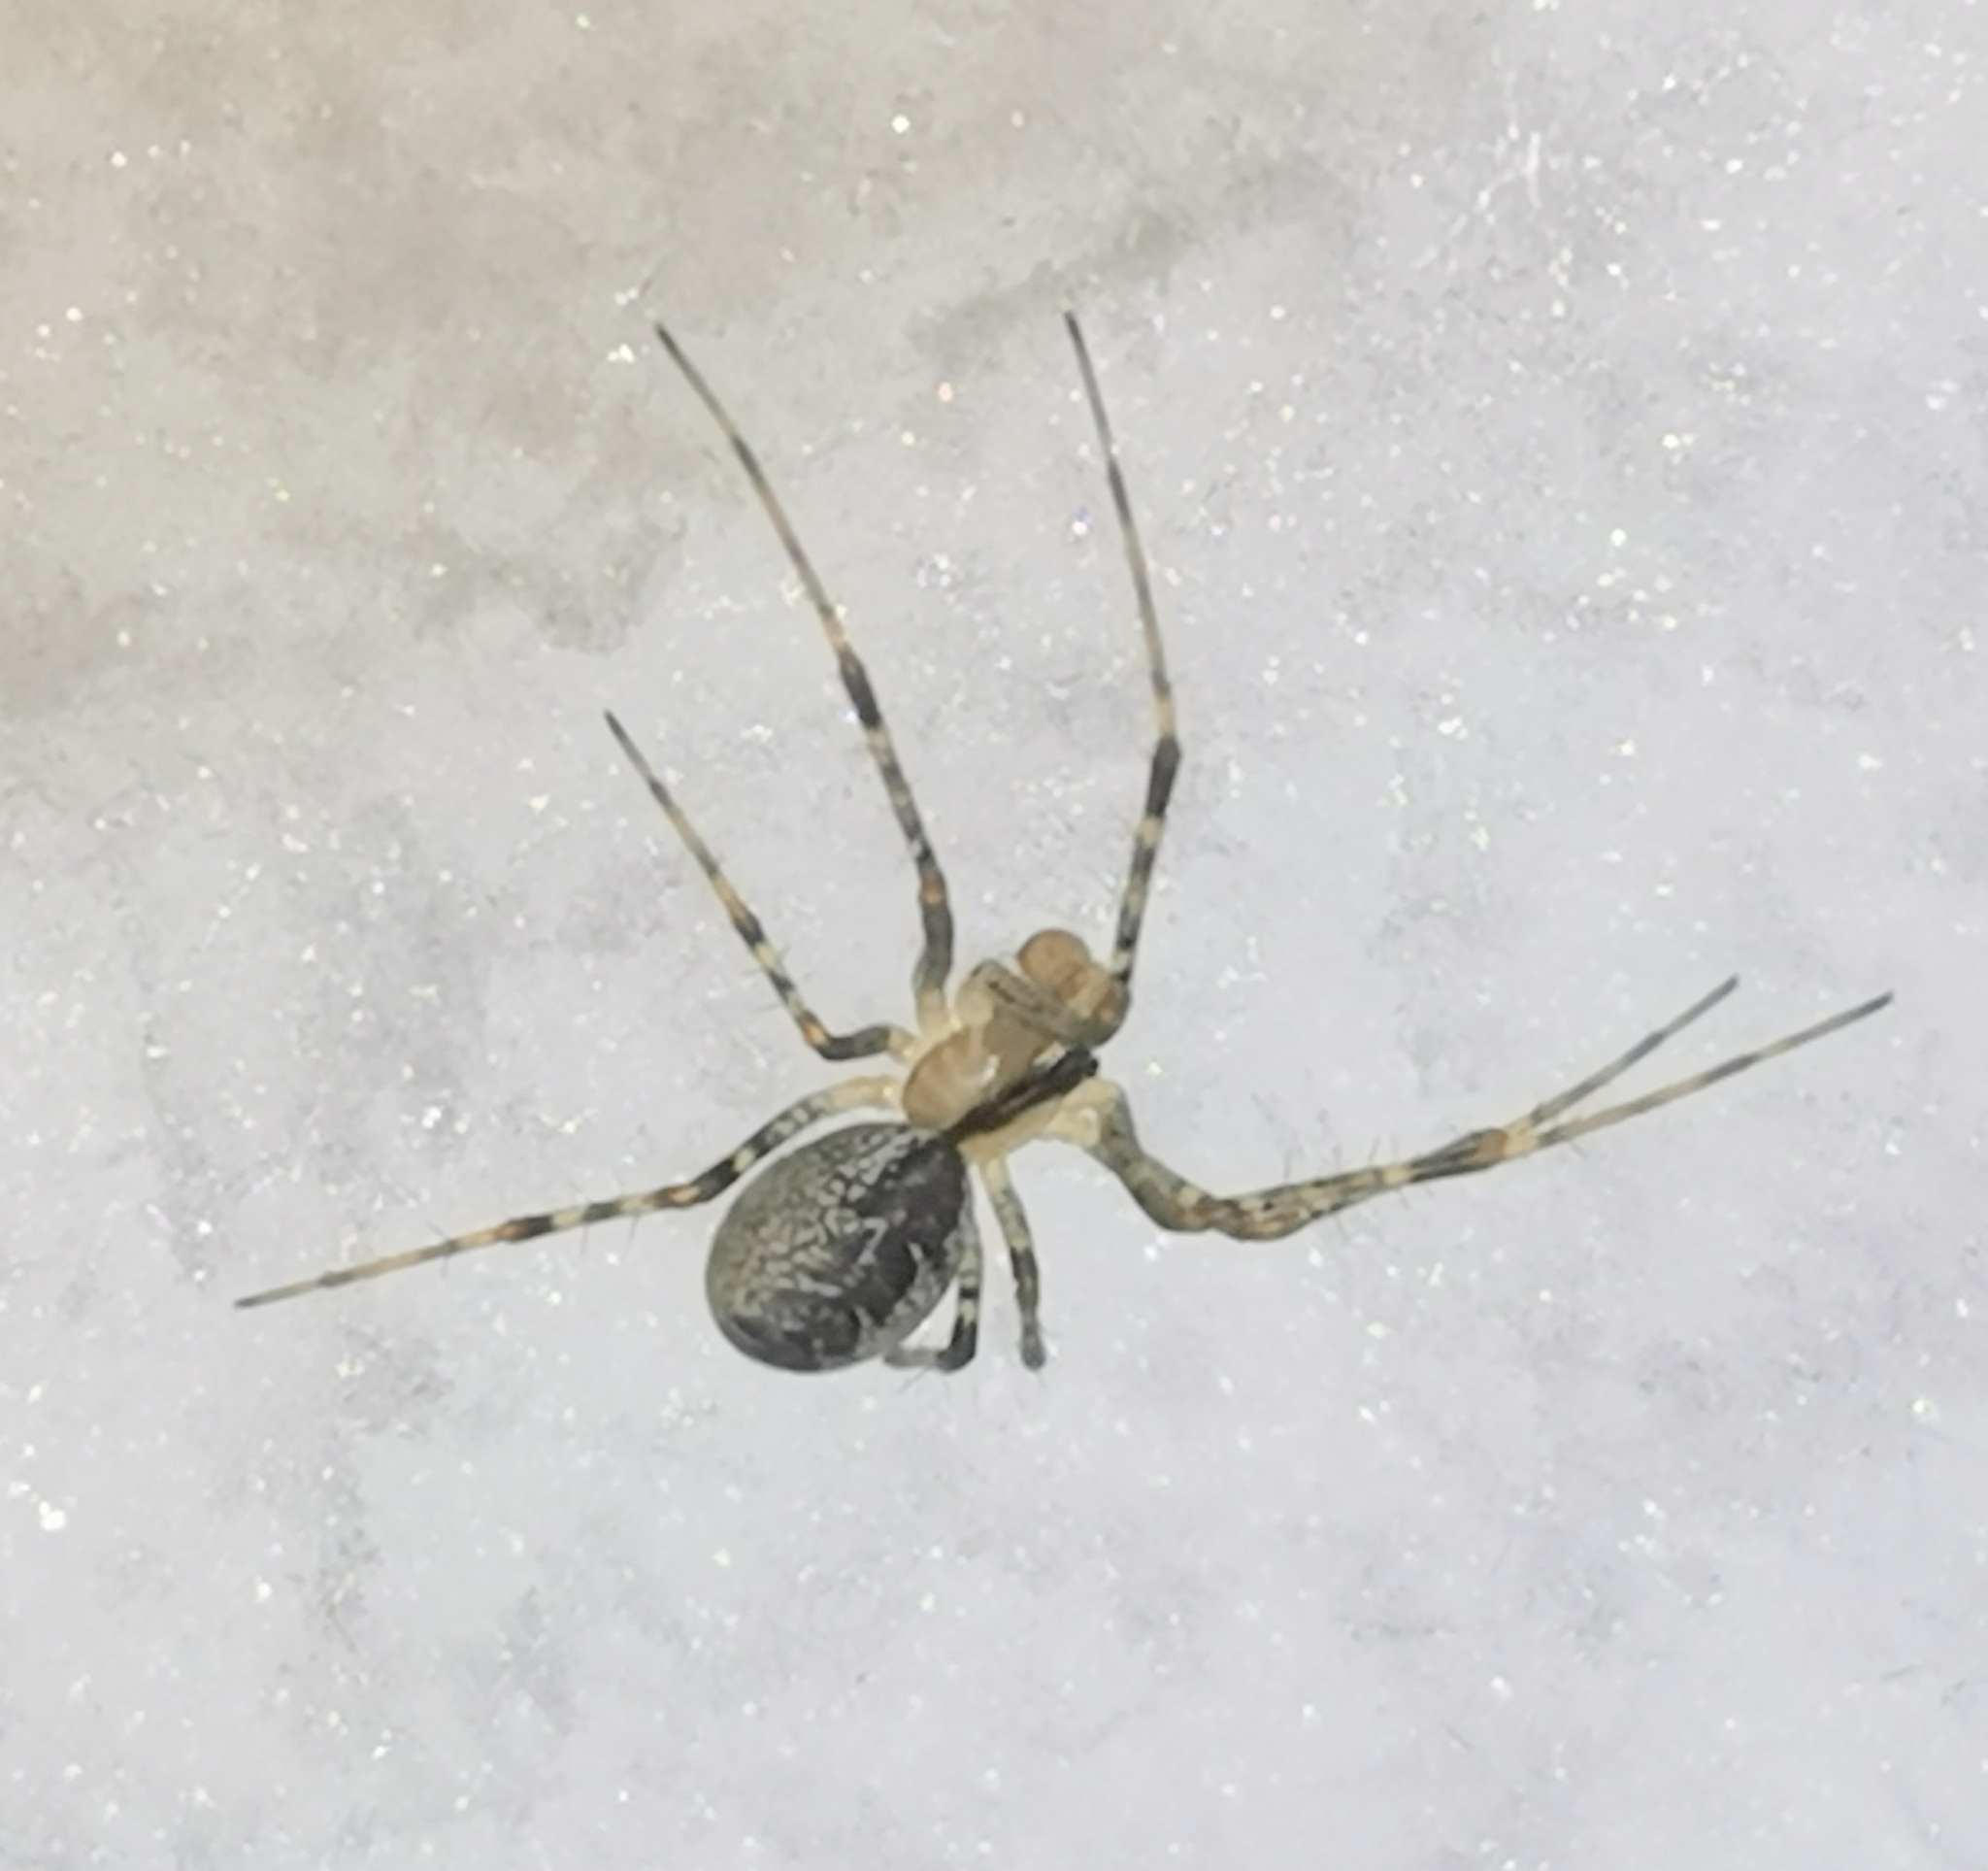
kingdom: Animalia
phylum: Arthropoda
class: Arachnida
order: Araneae
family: Linyphiidae
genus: Pityohyphantes
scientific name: Pityohyphantes phrygianus
